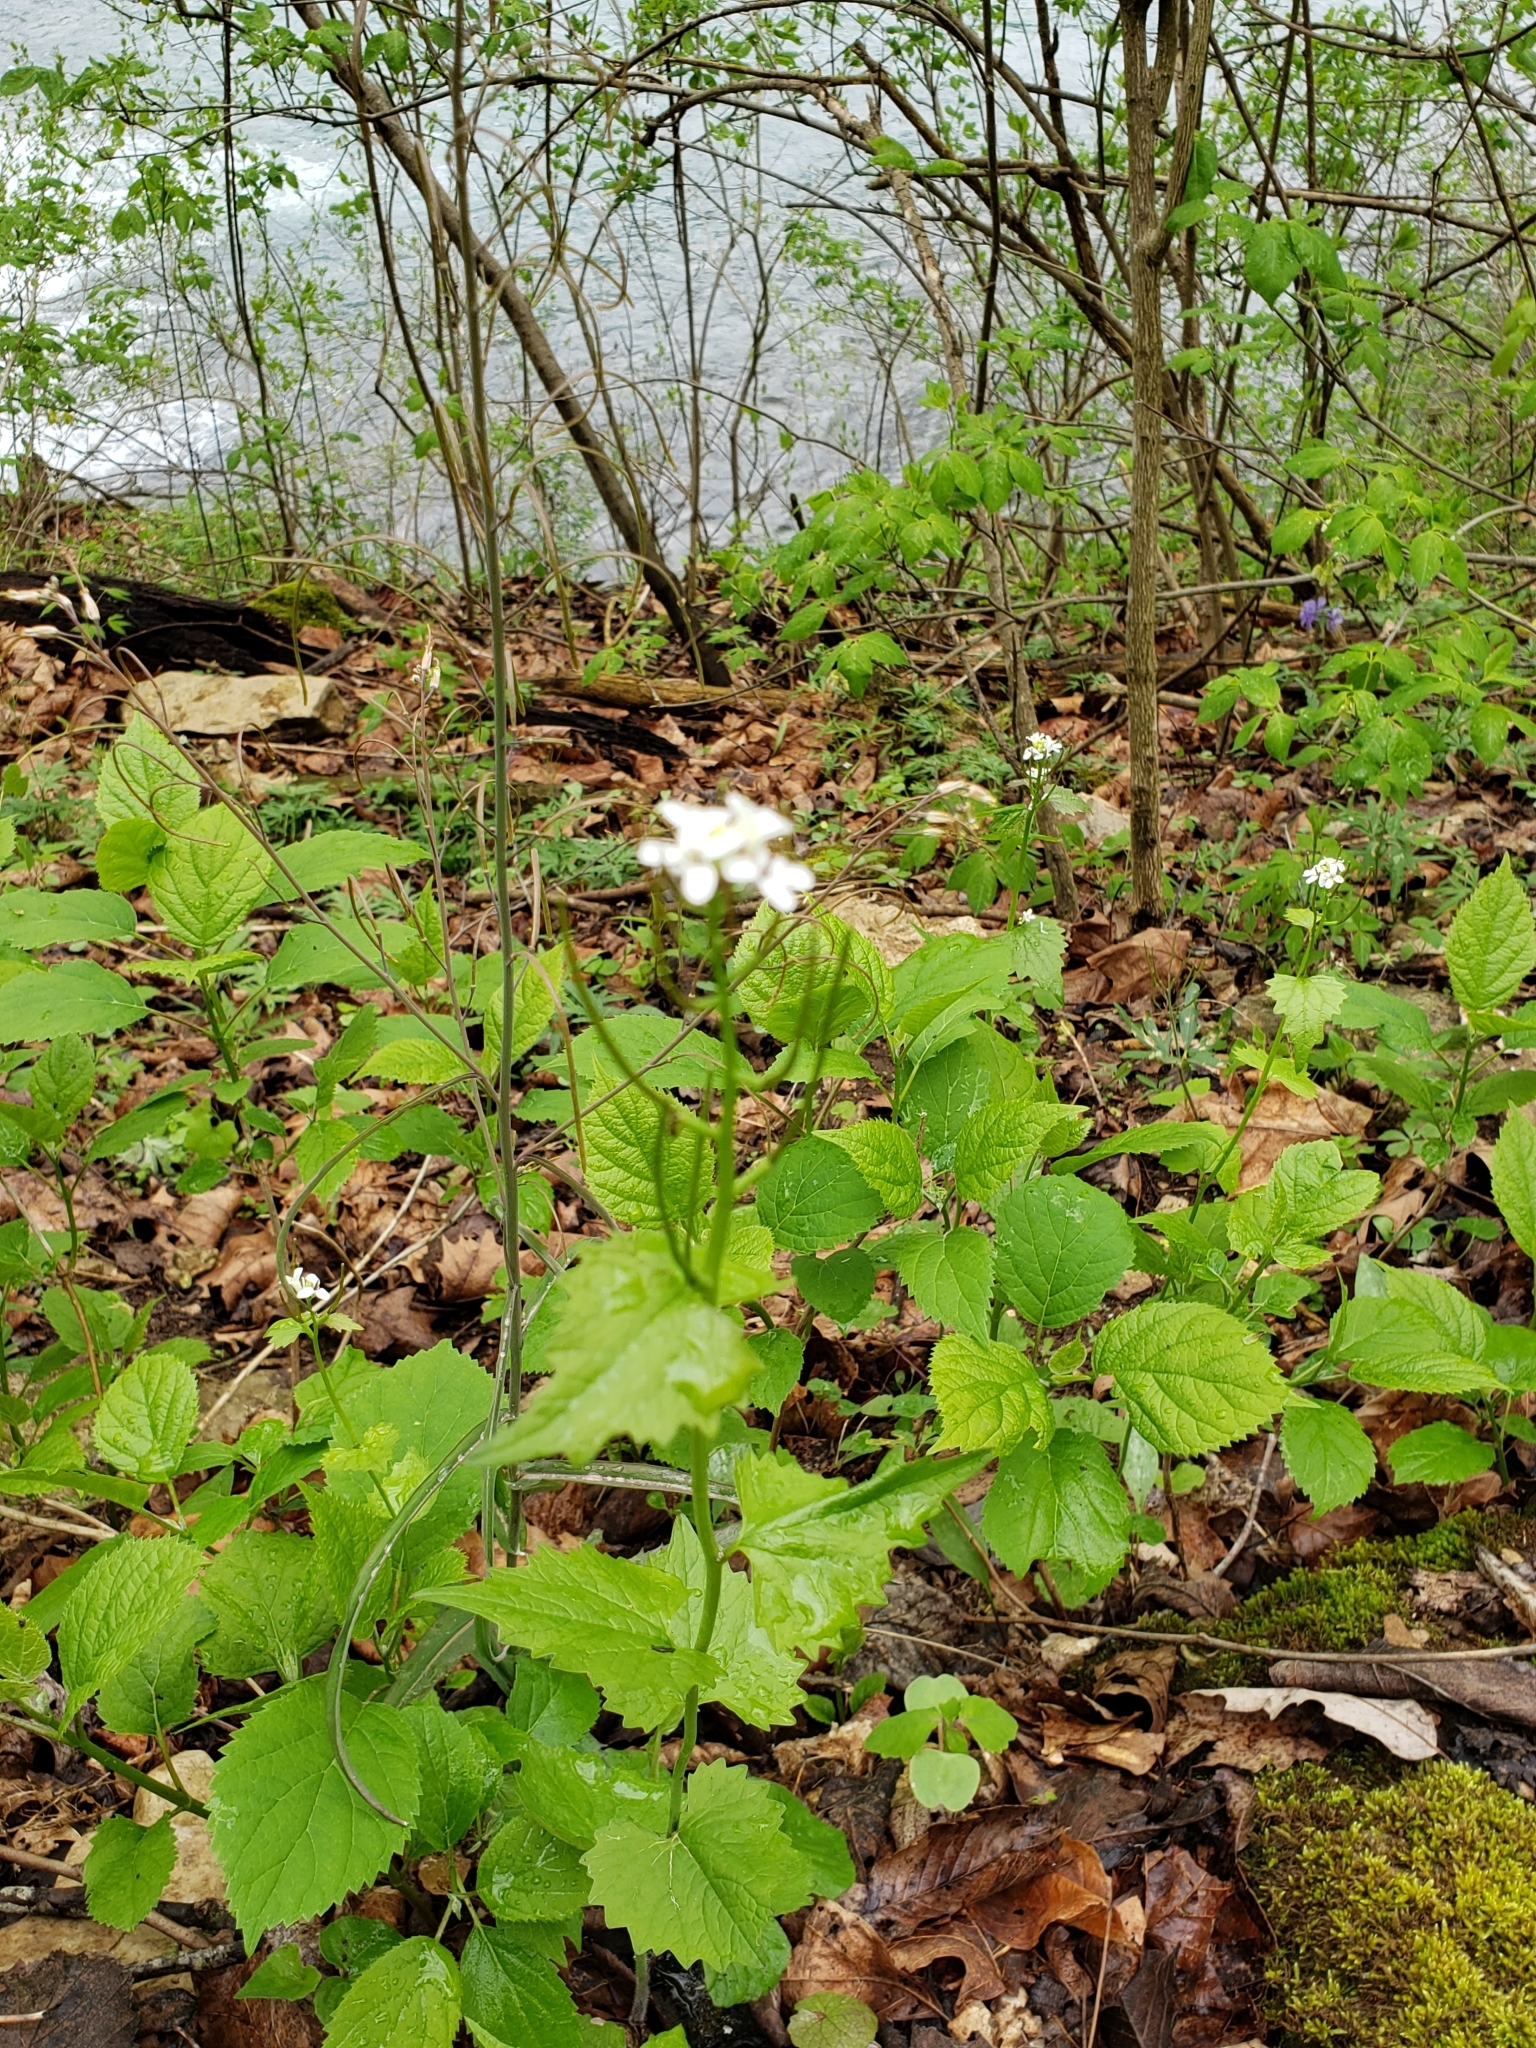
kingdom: Plantae
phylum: Tracheophyta
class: Magnoliopsida
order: Brassicales
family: Brassicaceae
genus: Alliaria
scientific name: Alliaria petiolata
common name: Garlic mustard
